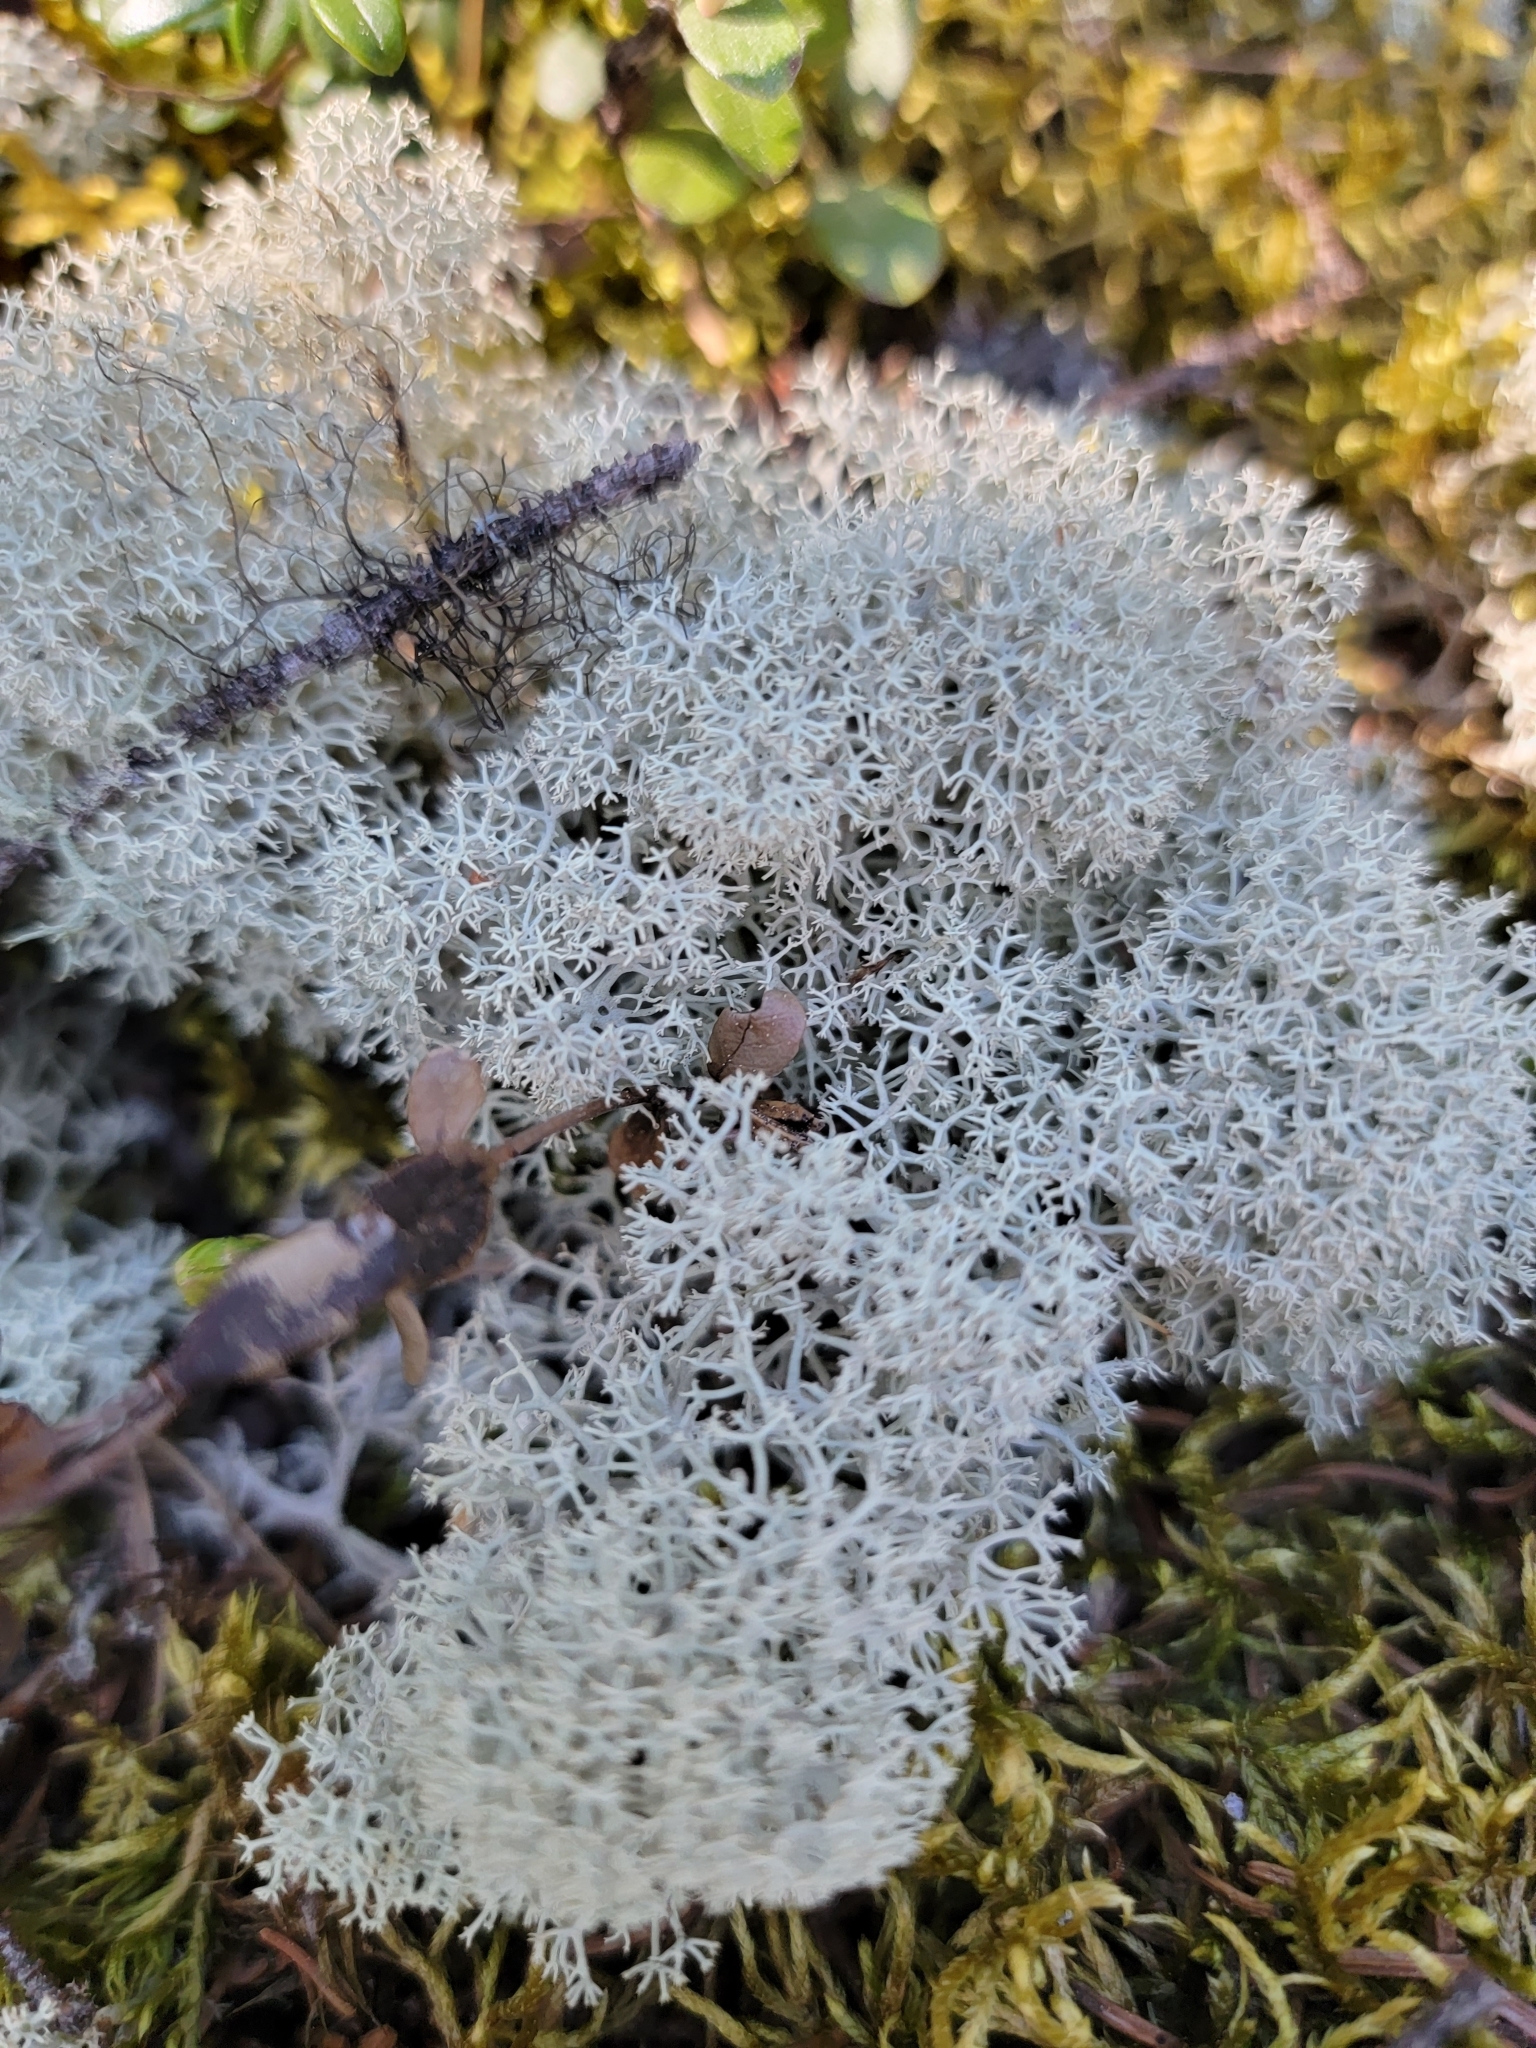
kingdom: Fungi
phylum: Ascomycota
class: Lecanoromycetes
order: Lecanorales
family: Cladoniaceae
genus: Cladonia
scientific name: Cladonia stellaris
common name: Star-tipped reindeer lichen
